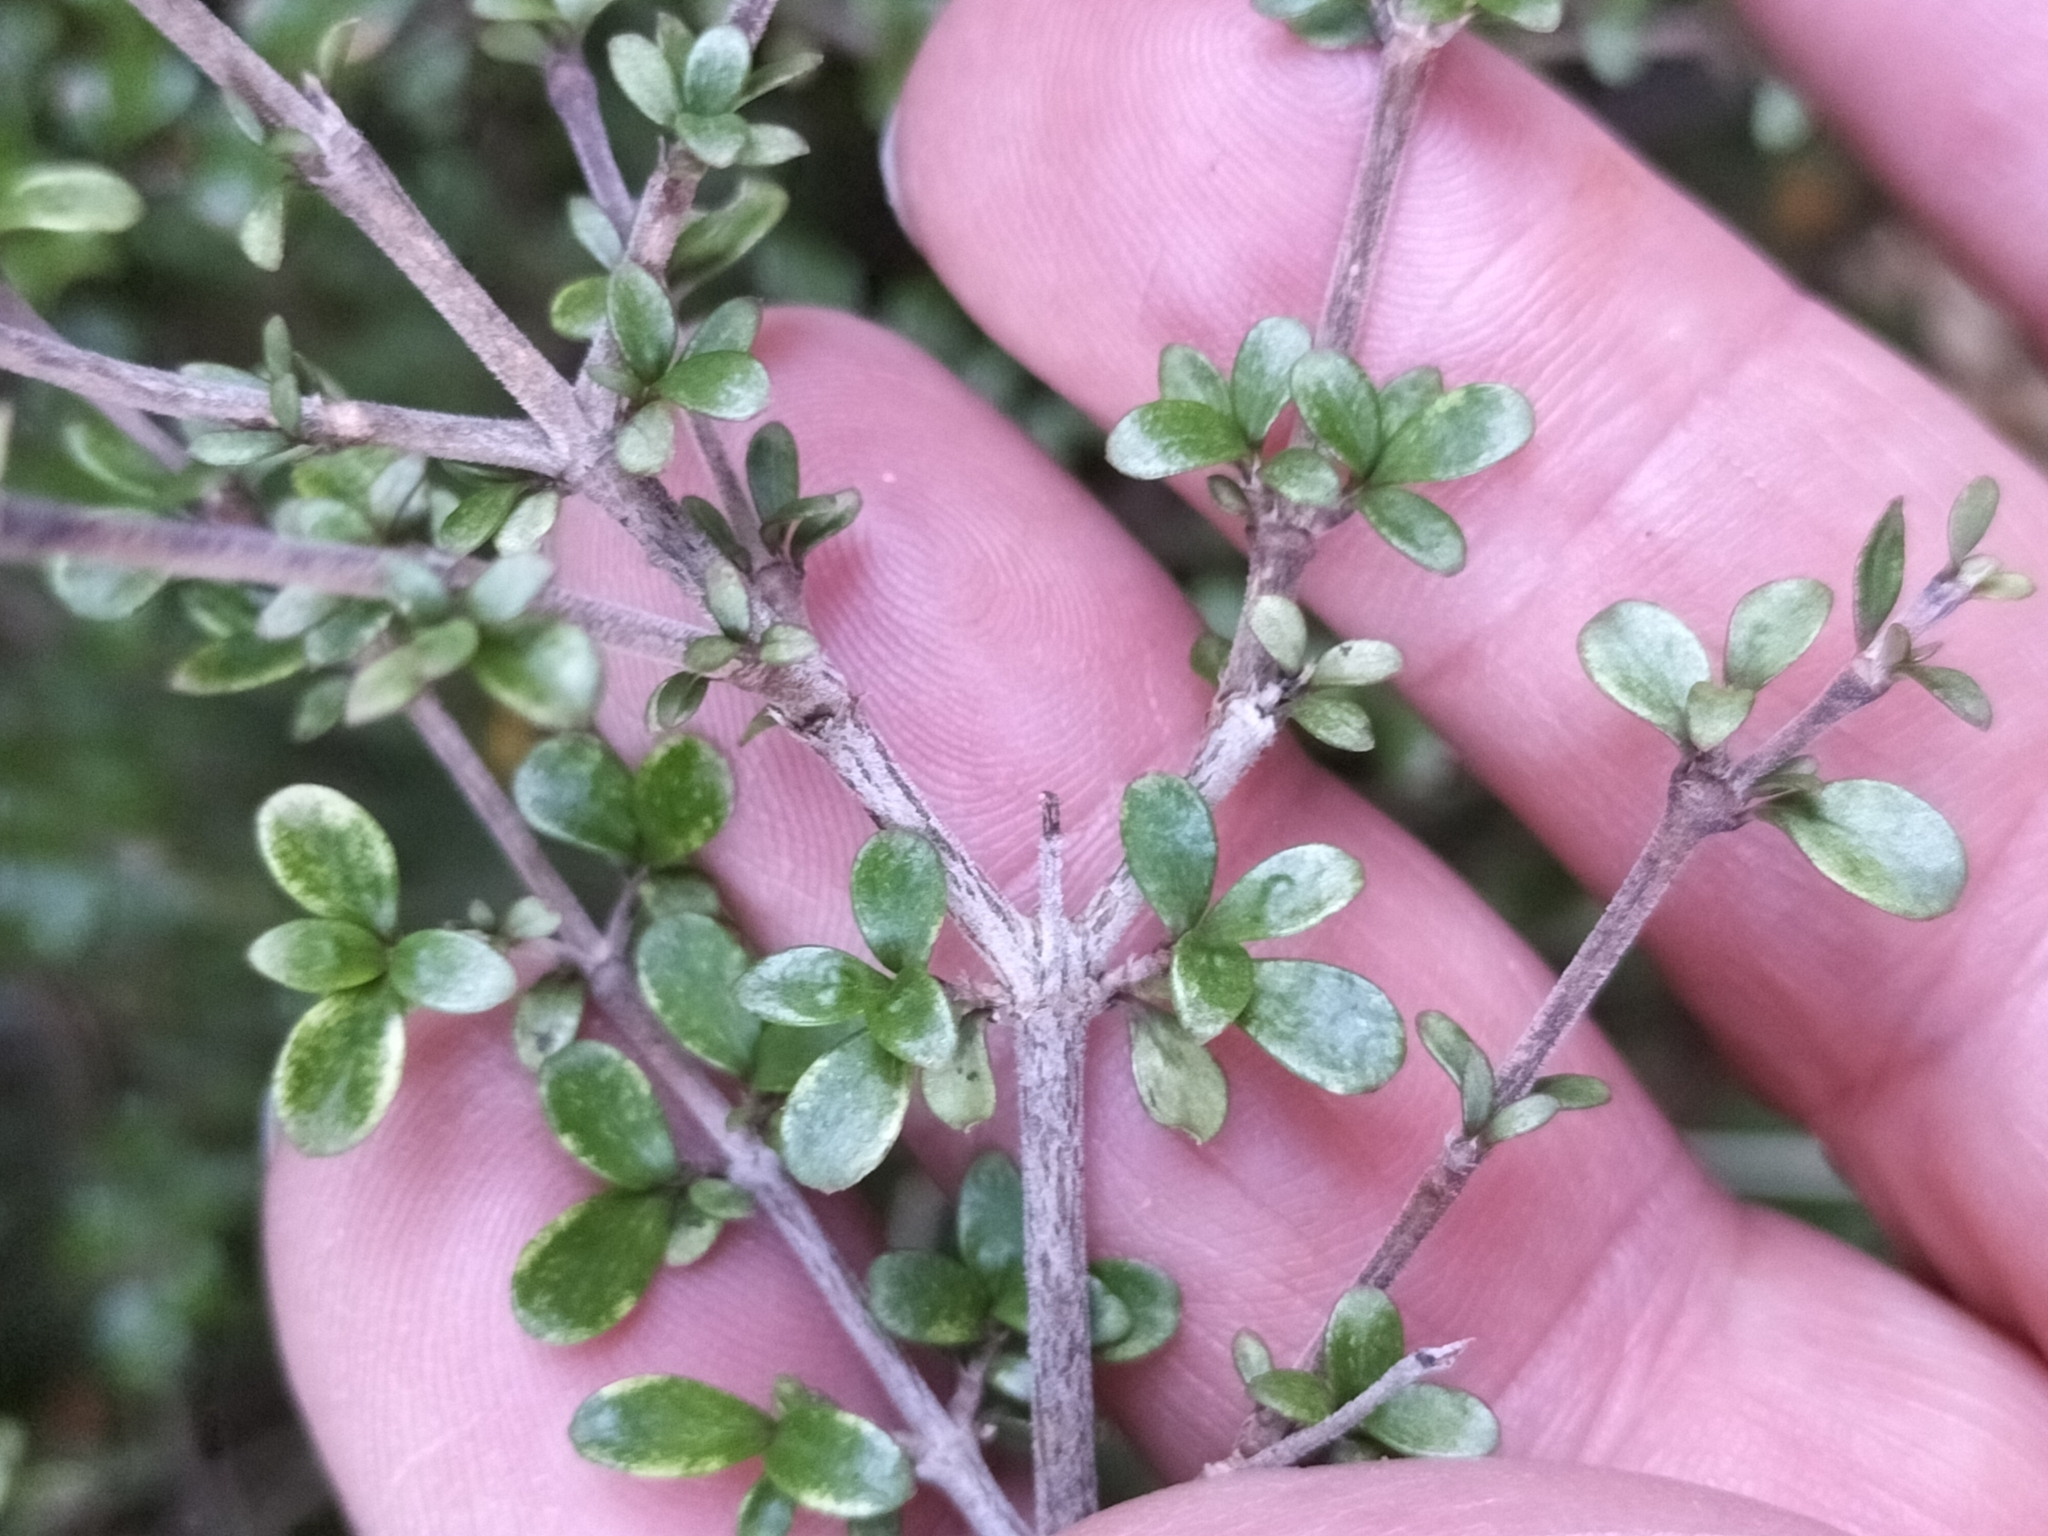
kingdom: Plantae
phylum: Tracheophyta
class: Magnoliopsida
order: Gentianales
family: Rubiaceae
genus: Coprosma
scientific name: Coprosma dumosa
